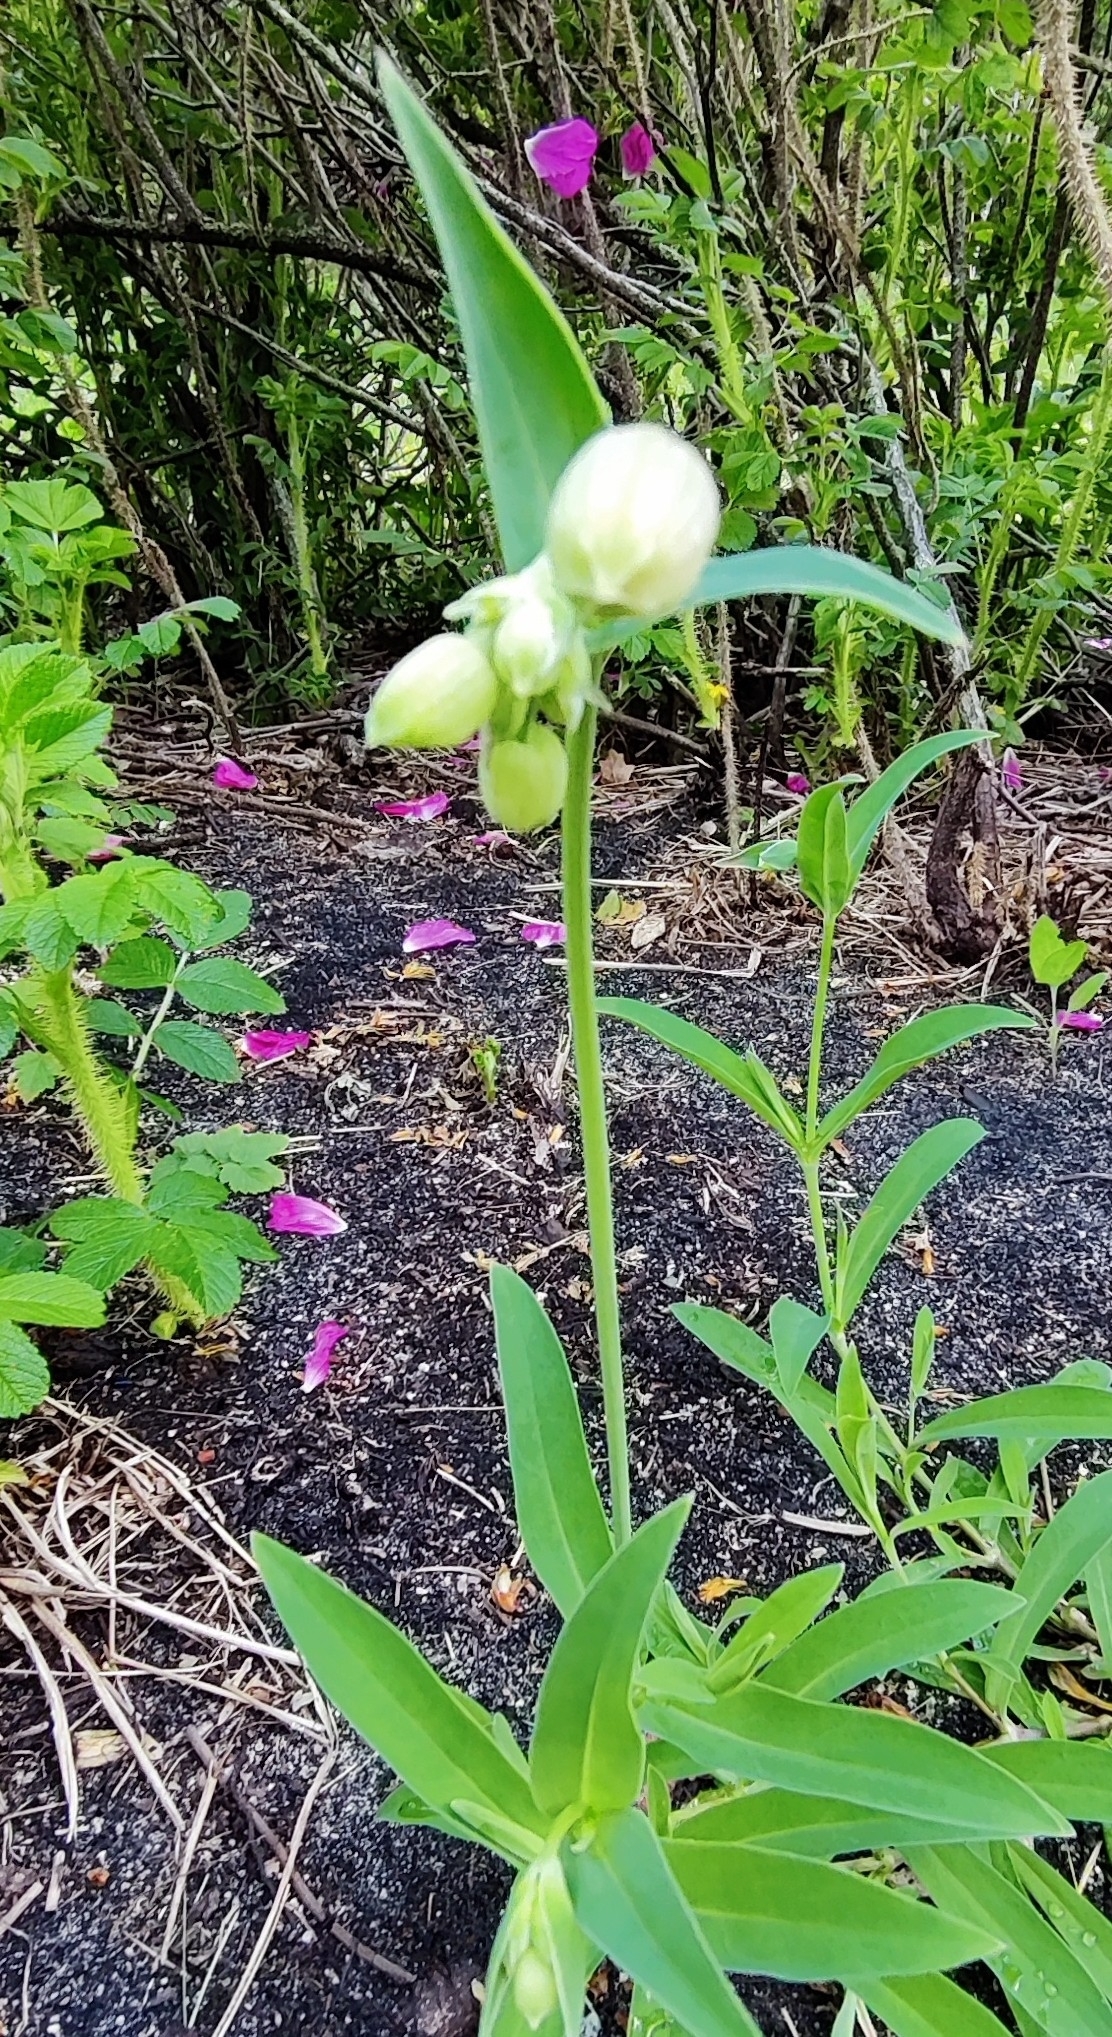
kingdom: Plantae
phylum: Tracheophyta
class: Magnoliopsida
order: Caryophyllales
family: Caryophyllaceae
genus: Silene
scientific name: Silene vulgaris
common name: Bladder campion
